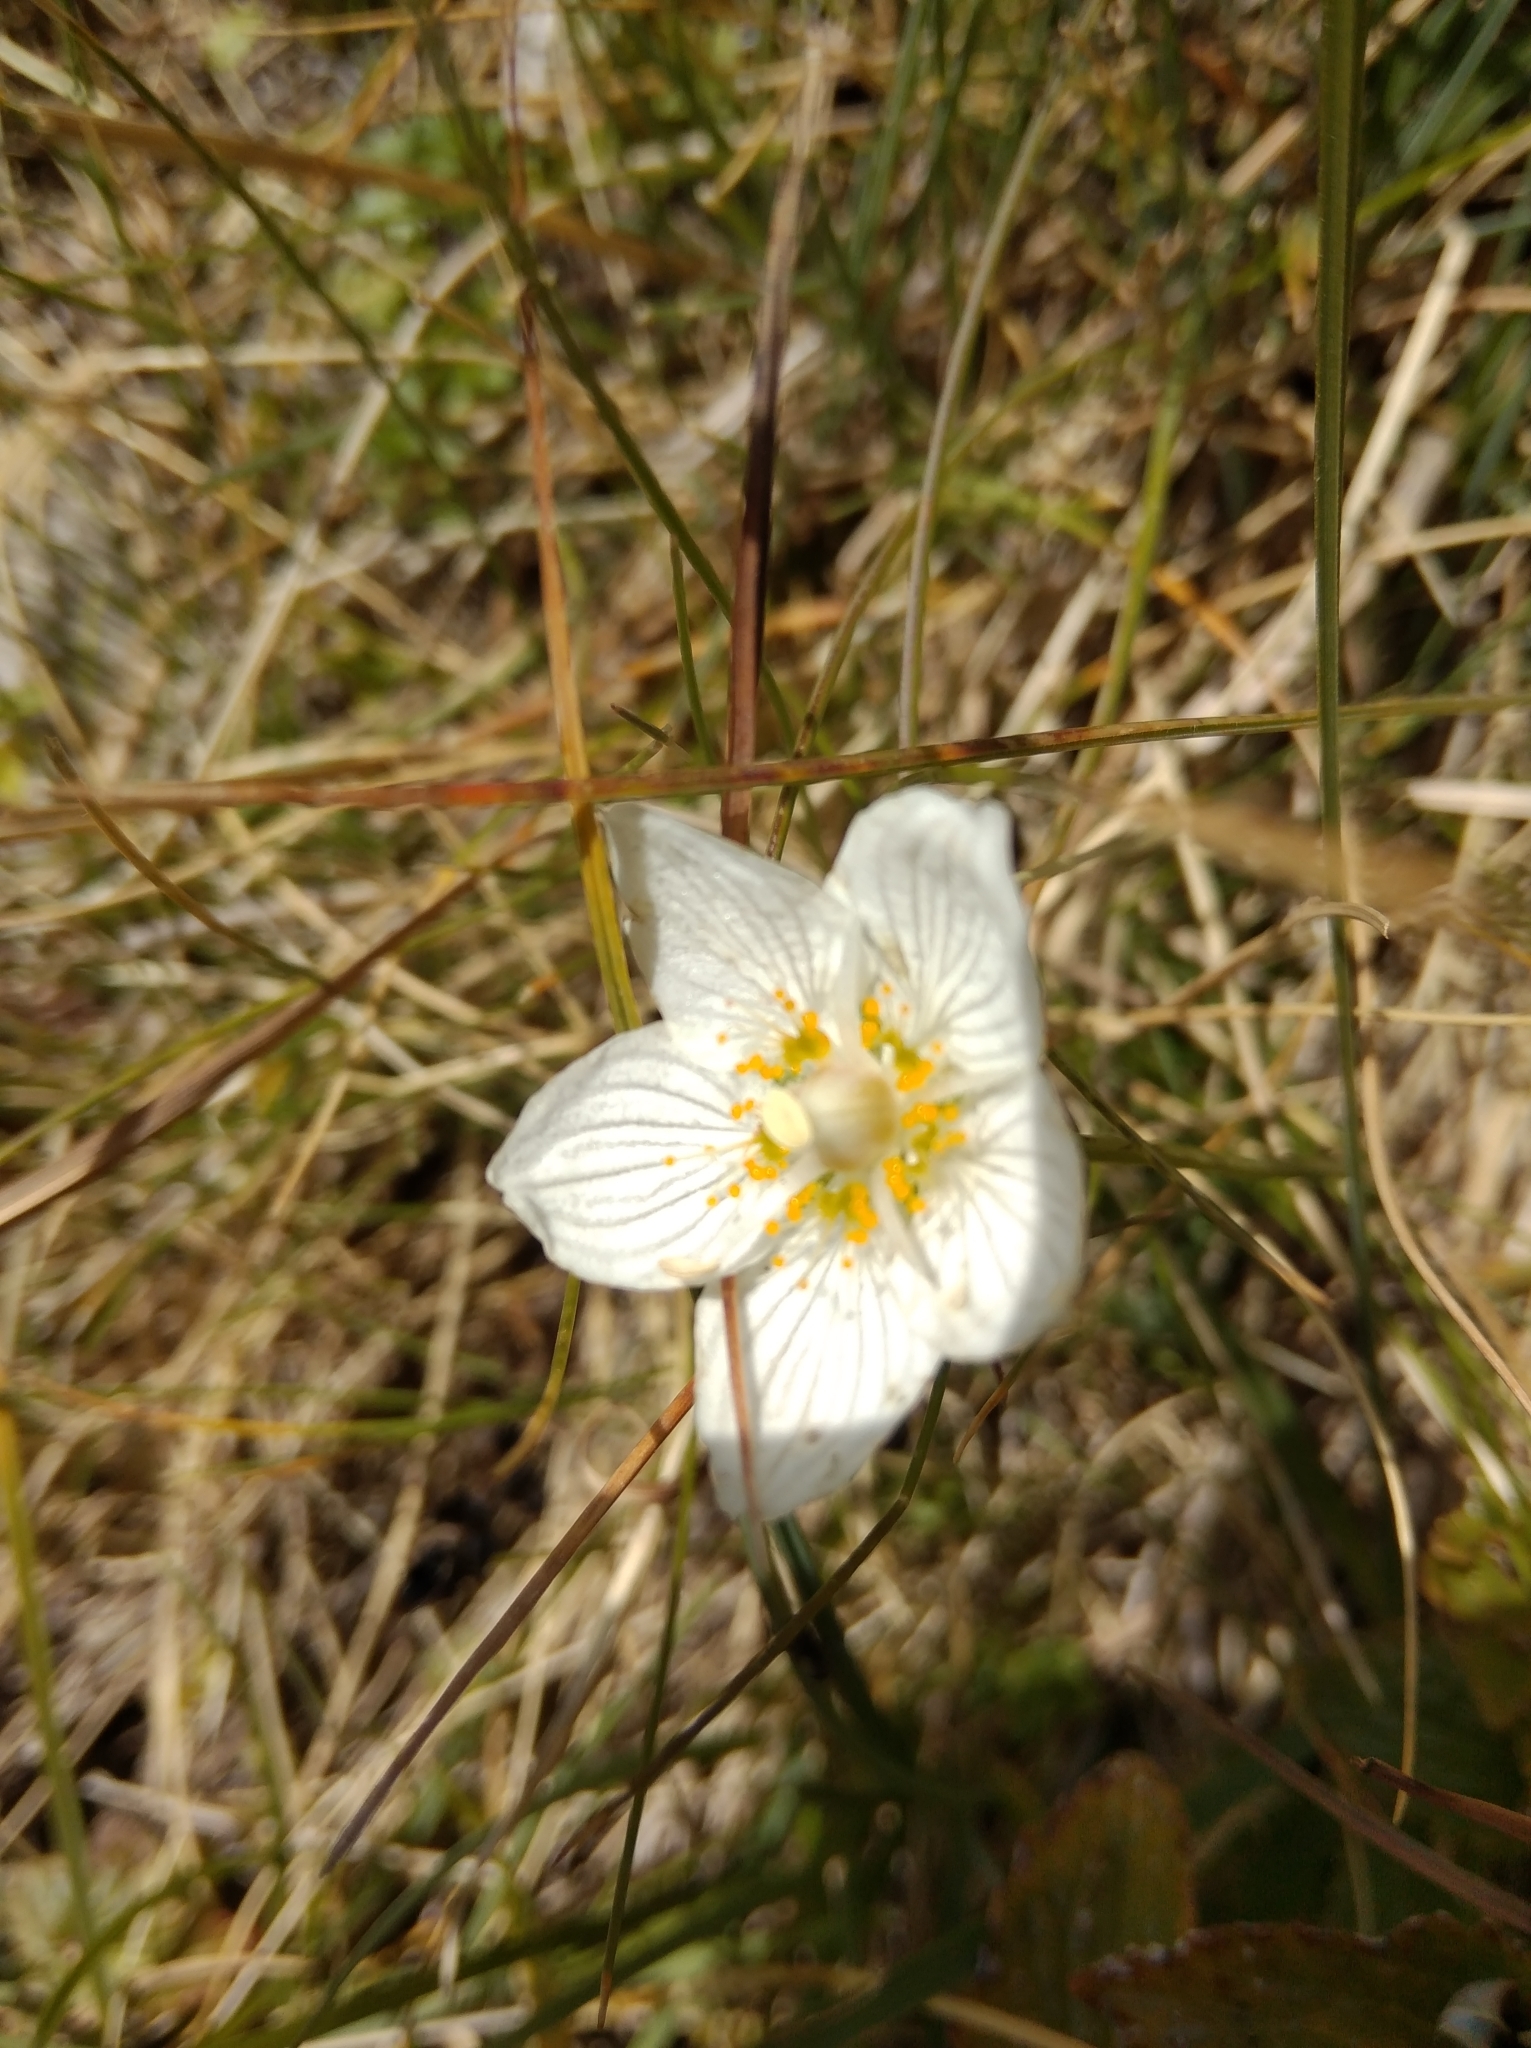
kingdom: Plantae
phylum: Tracheophyta
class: Magnoliopsida
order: Celastrales
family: Parnassiaceae
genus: Parnassia
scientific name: Parnassia palustris
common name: Grass-of-parnassus
